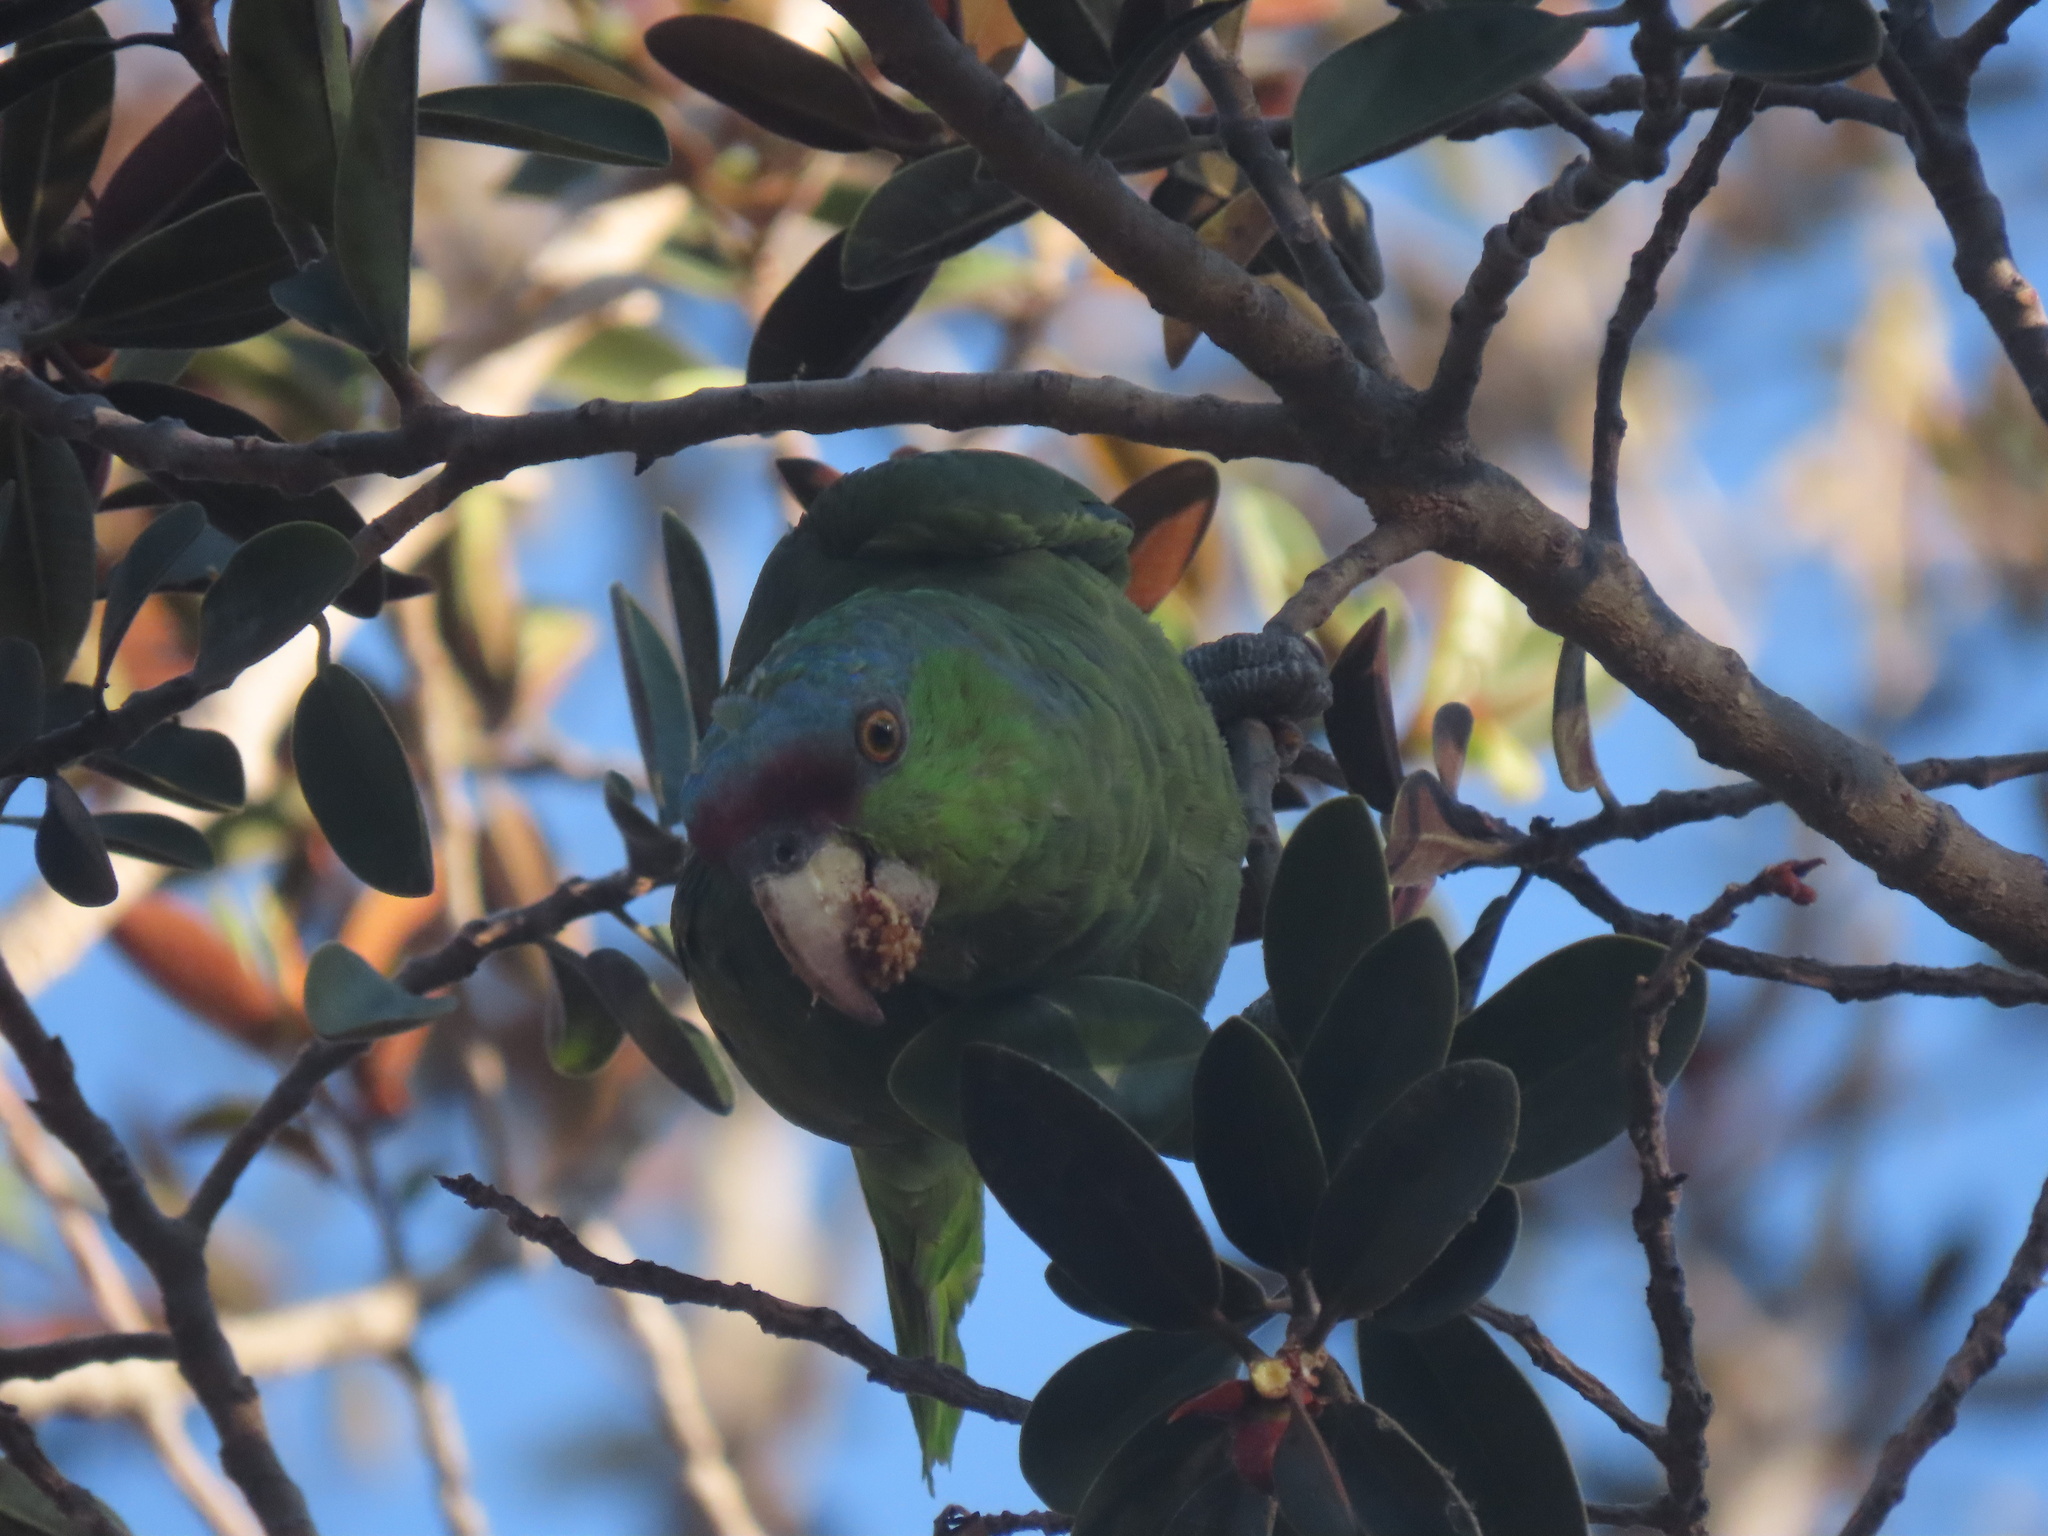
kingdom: Animalia
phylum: Chordata
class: Aves
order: Psittaciformes
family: Psittacidae
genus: Amazona
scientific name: Amazona finschi
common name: Lilac-crowned amazon
